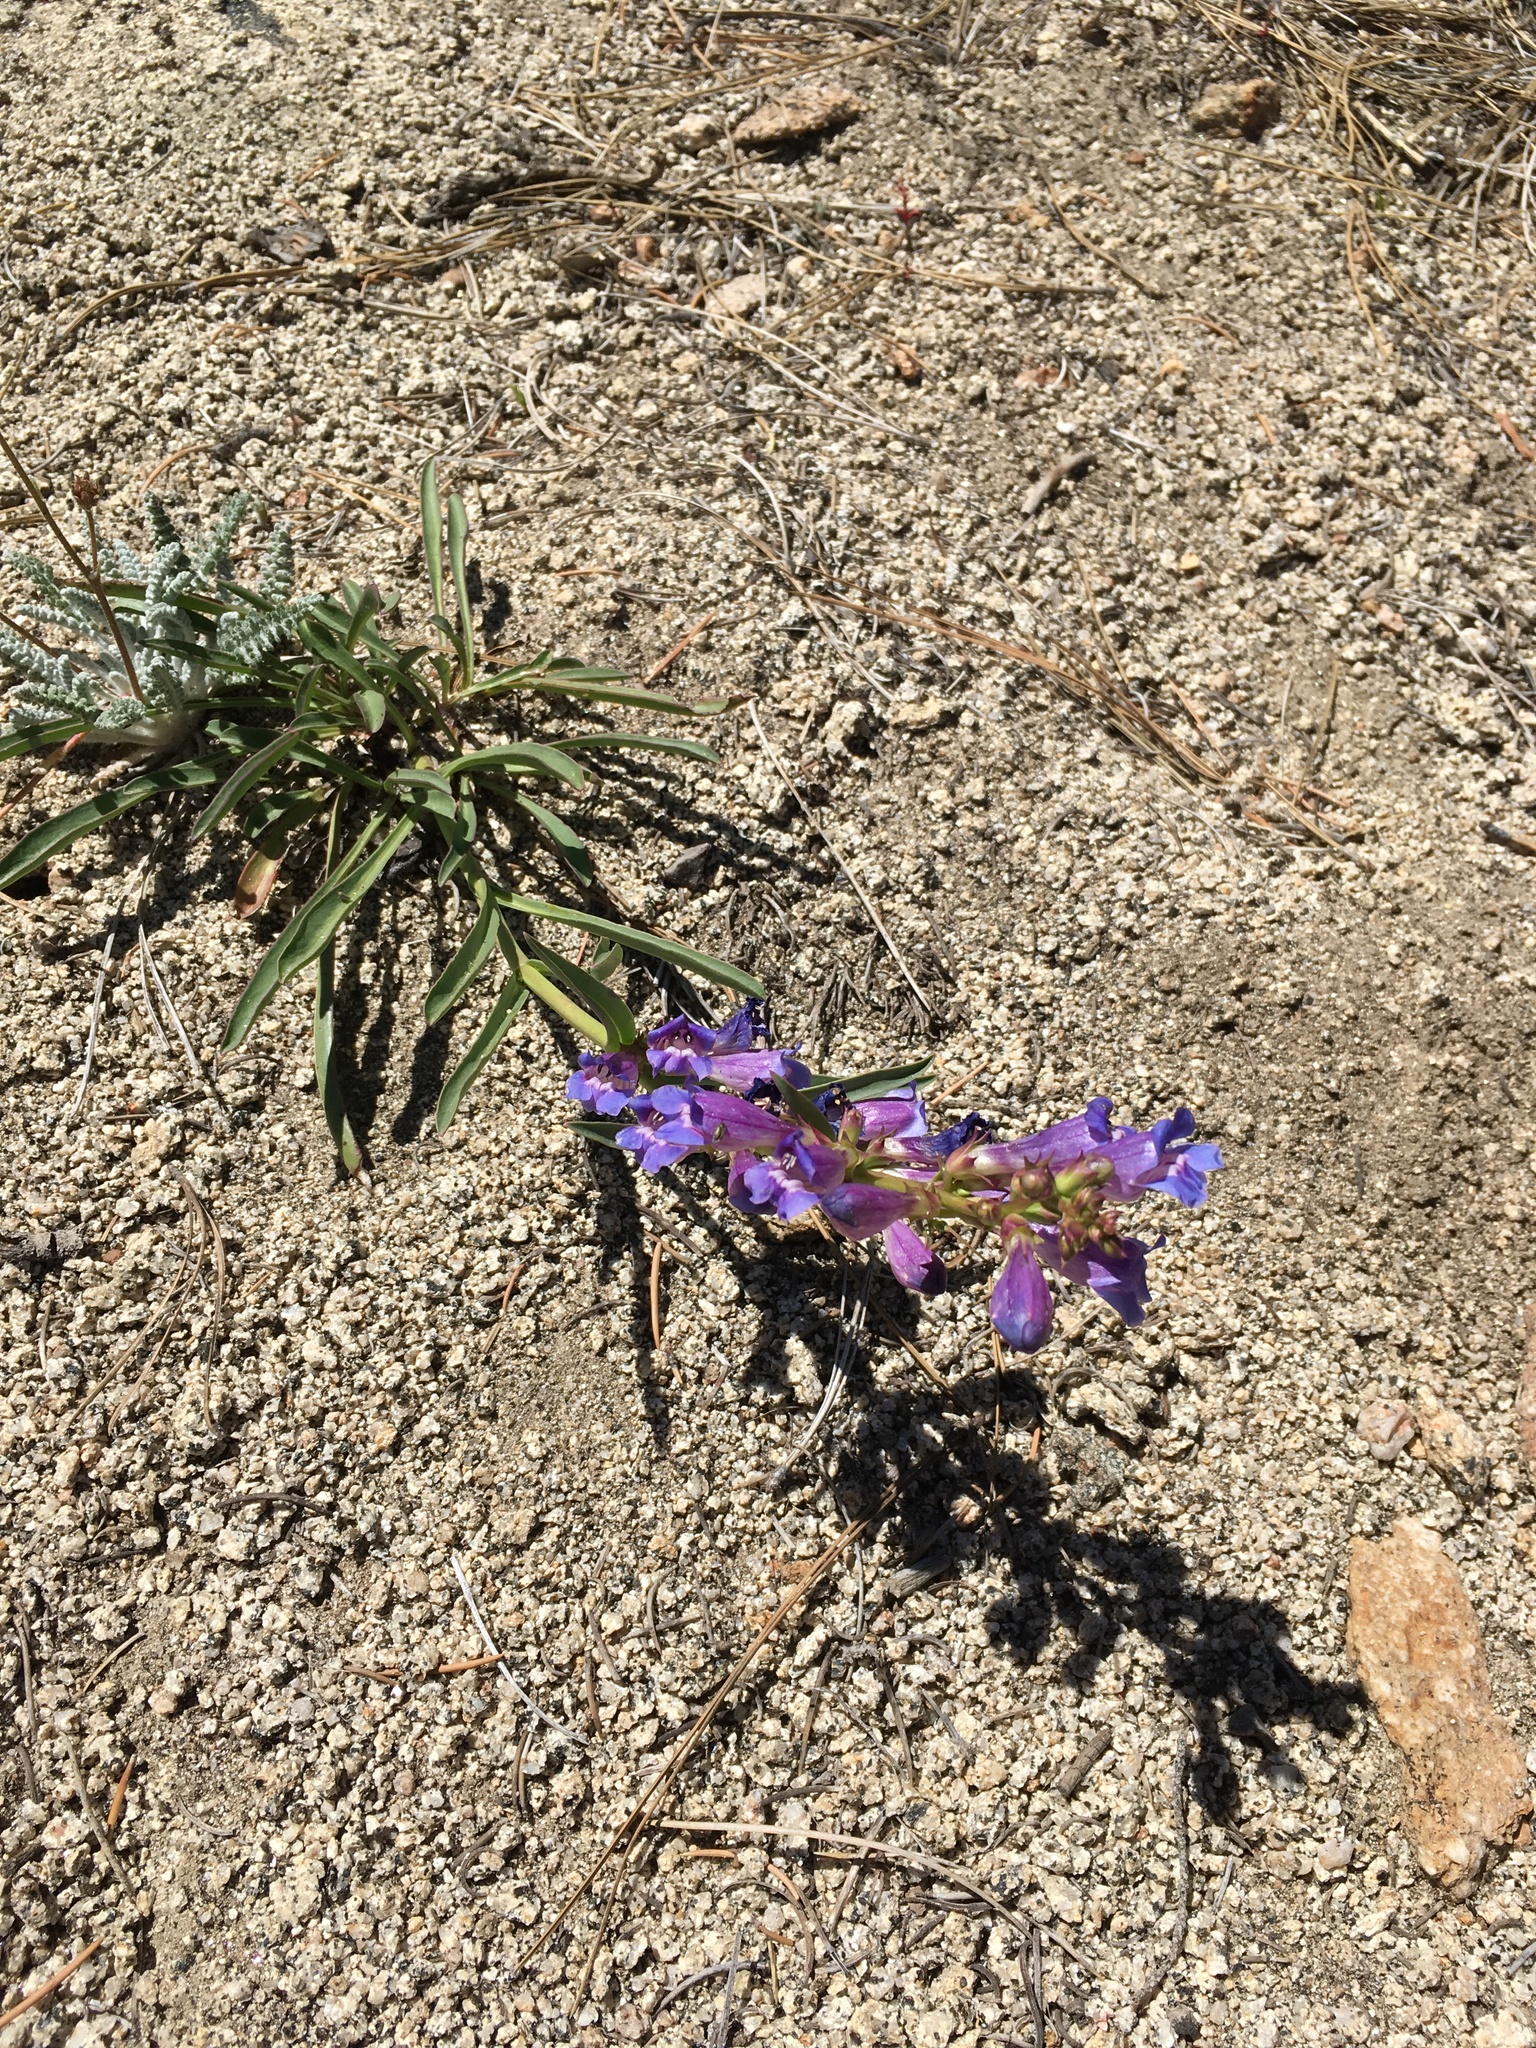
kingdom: Plantae
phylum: Tracheophyta
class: Magnoliopsida
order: Lamiales
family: Plantaginaceae
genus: Penstemon
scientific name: Penstemon speciosus
